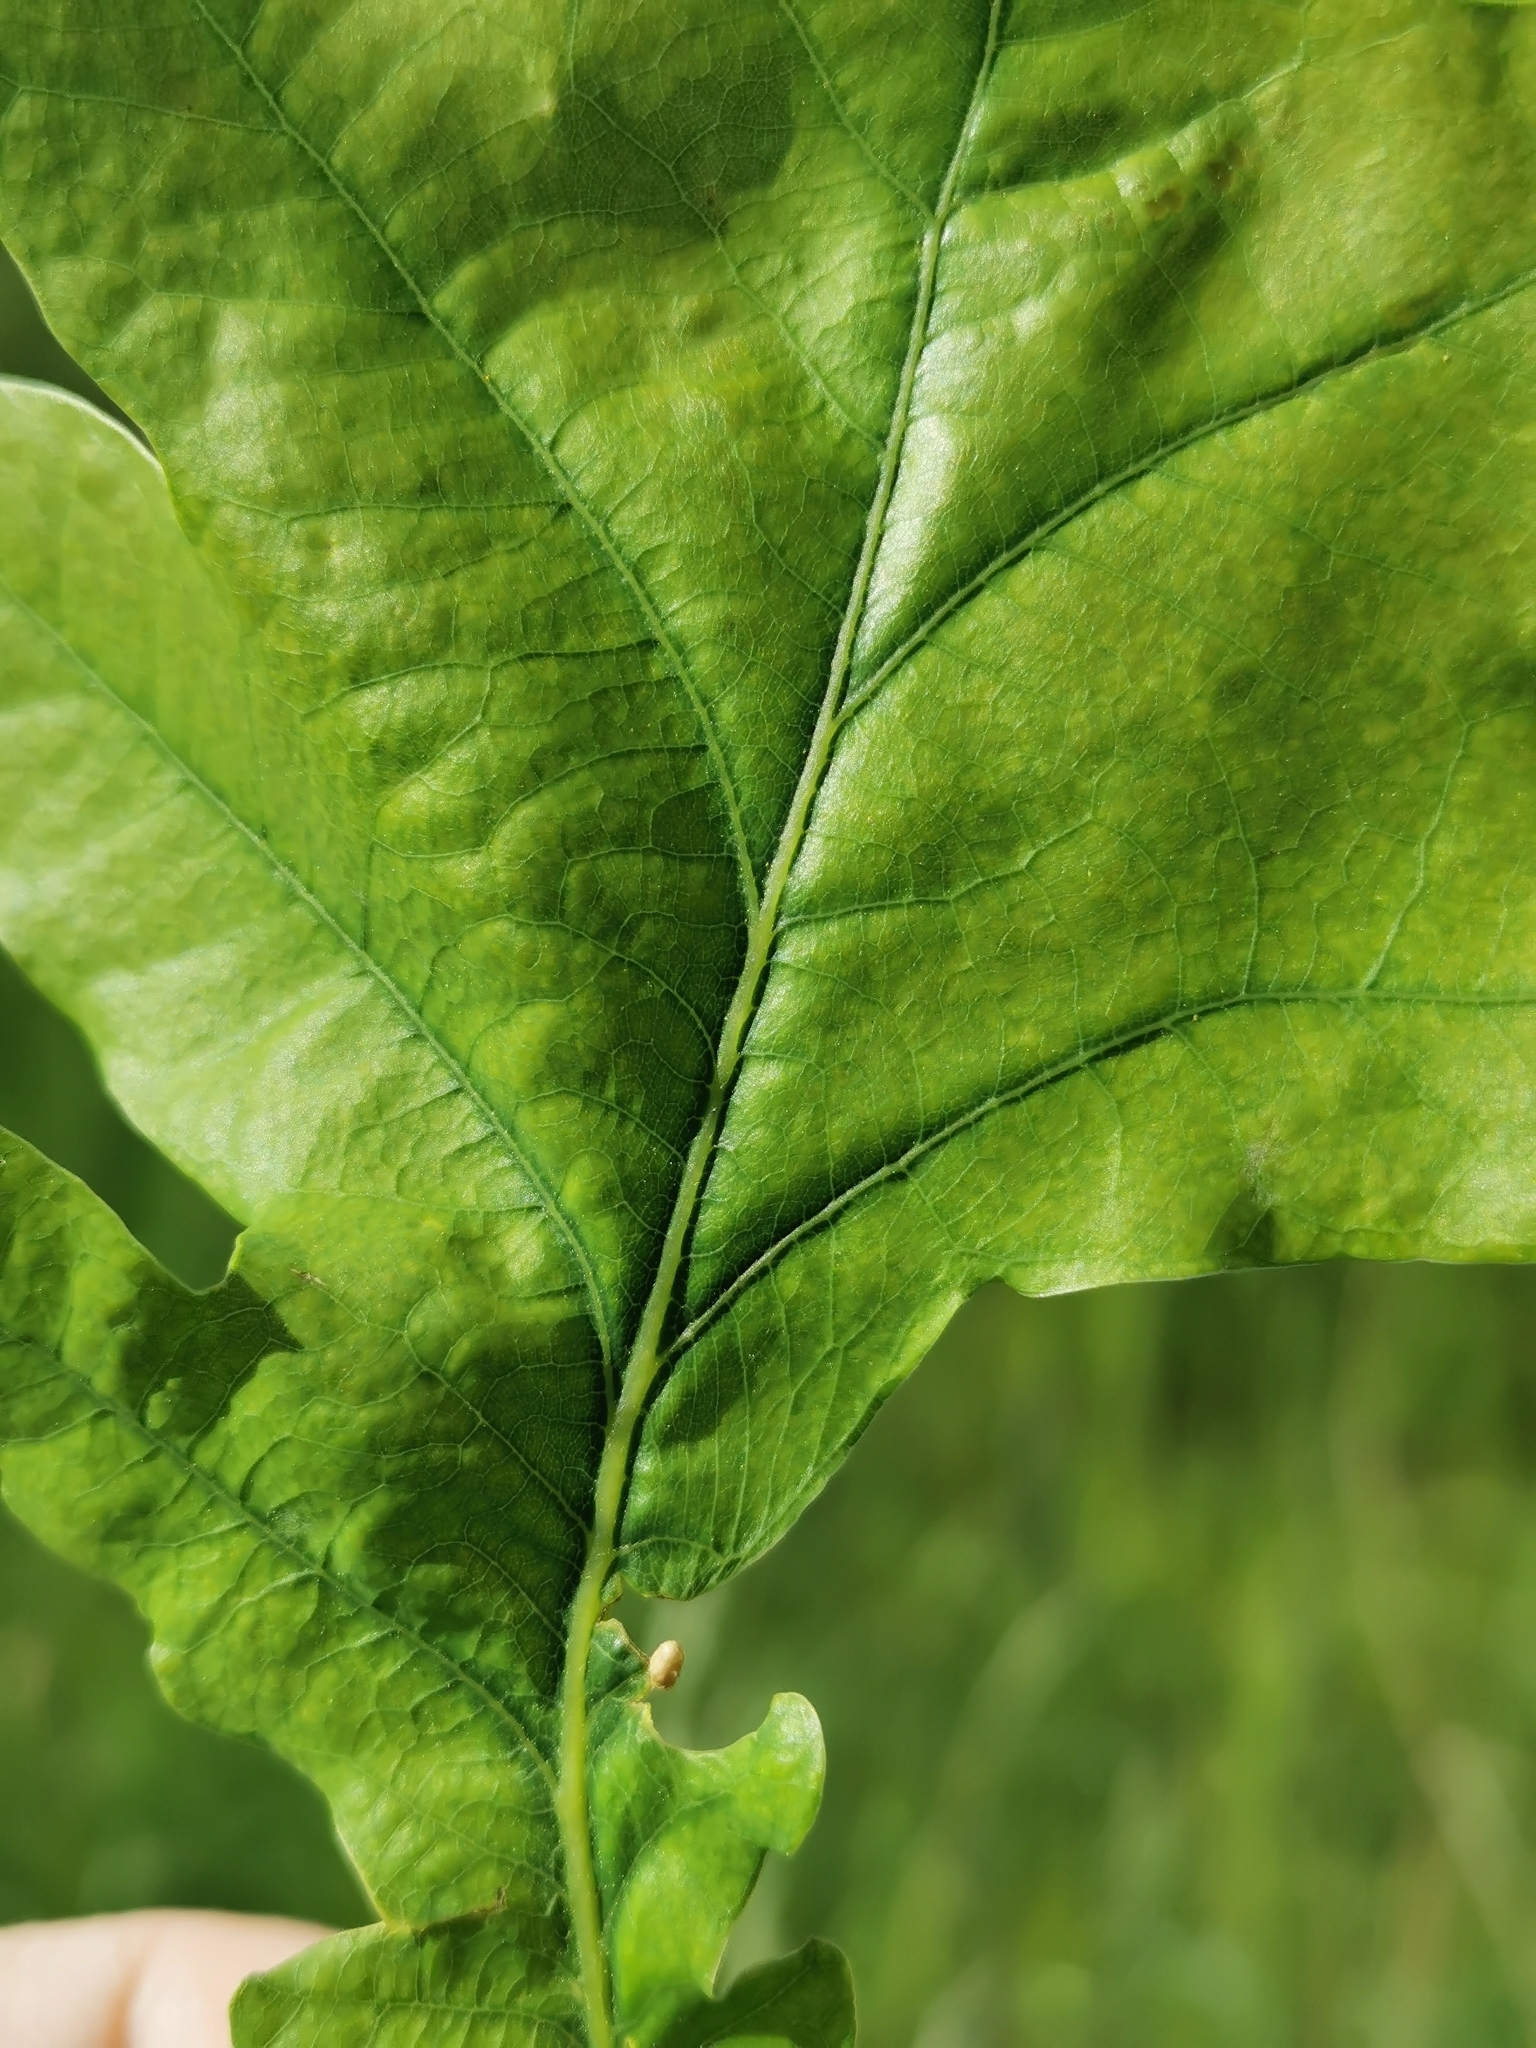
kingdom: Animalia
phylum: Arthropoda
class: Insecta
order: Hymenoptera
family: Cynipidae
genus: Neuroterus
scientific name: Neuroterus albipes
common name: Smooth spangle gall
